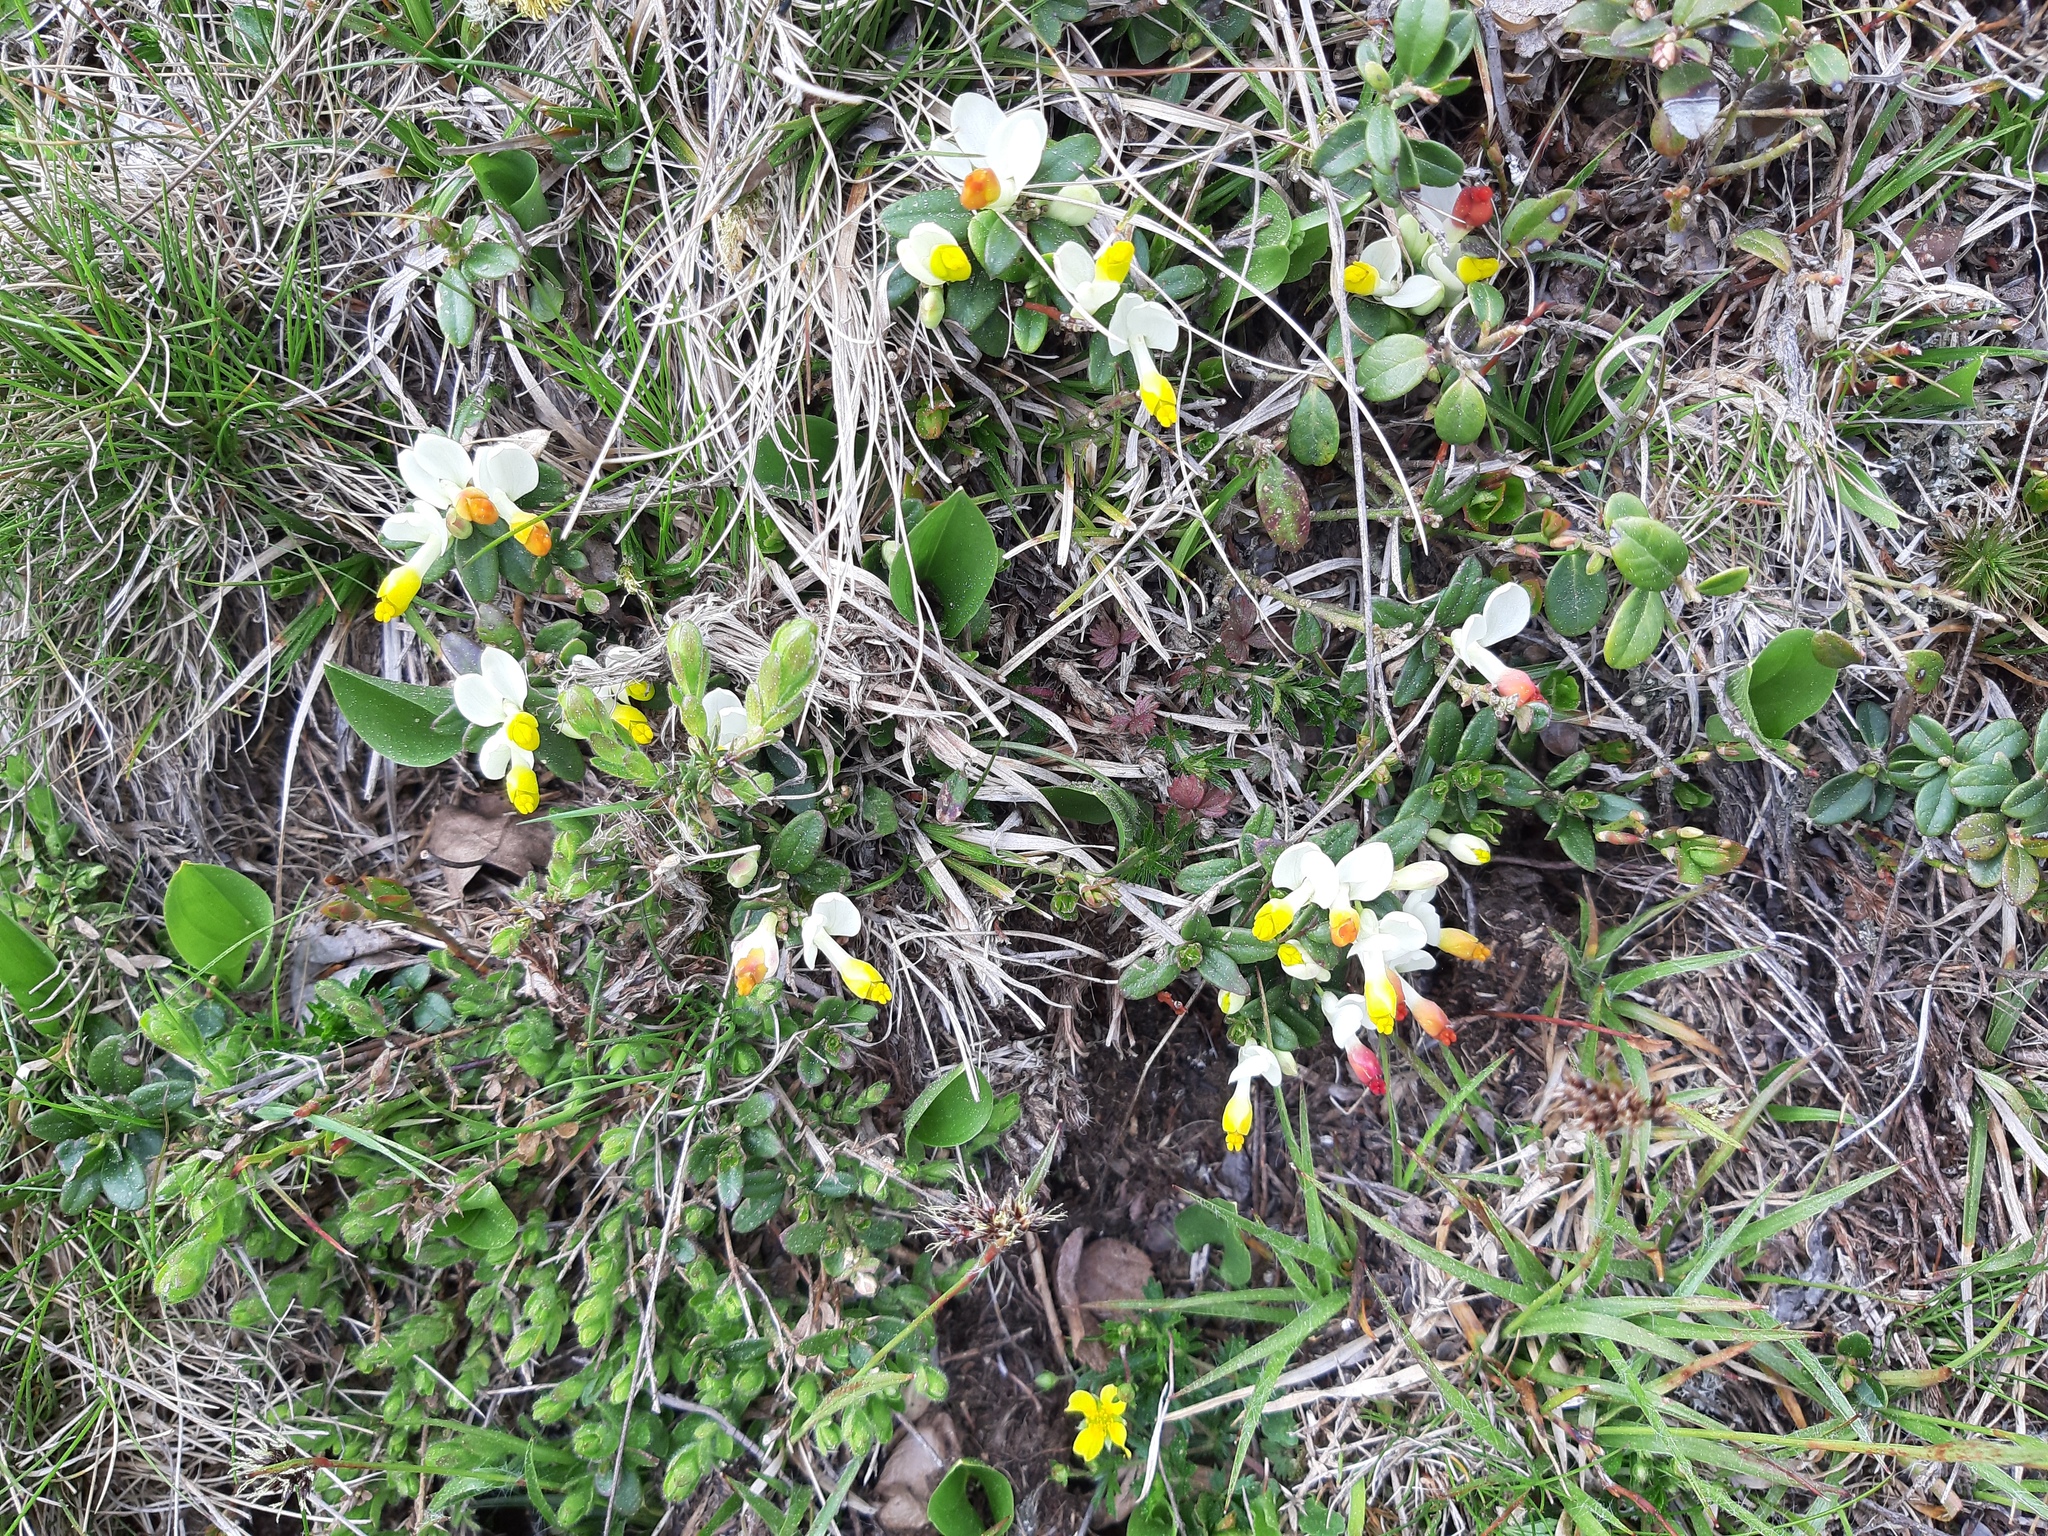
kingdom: Plantae
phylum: Tracheophyta
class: Magnoliopsida
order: Fabales
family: Polygalaceae
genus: Polygaloides
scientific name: Polygaloides chamaebuxus
